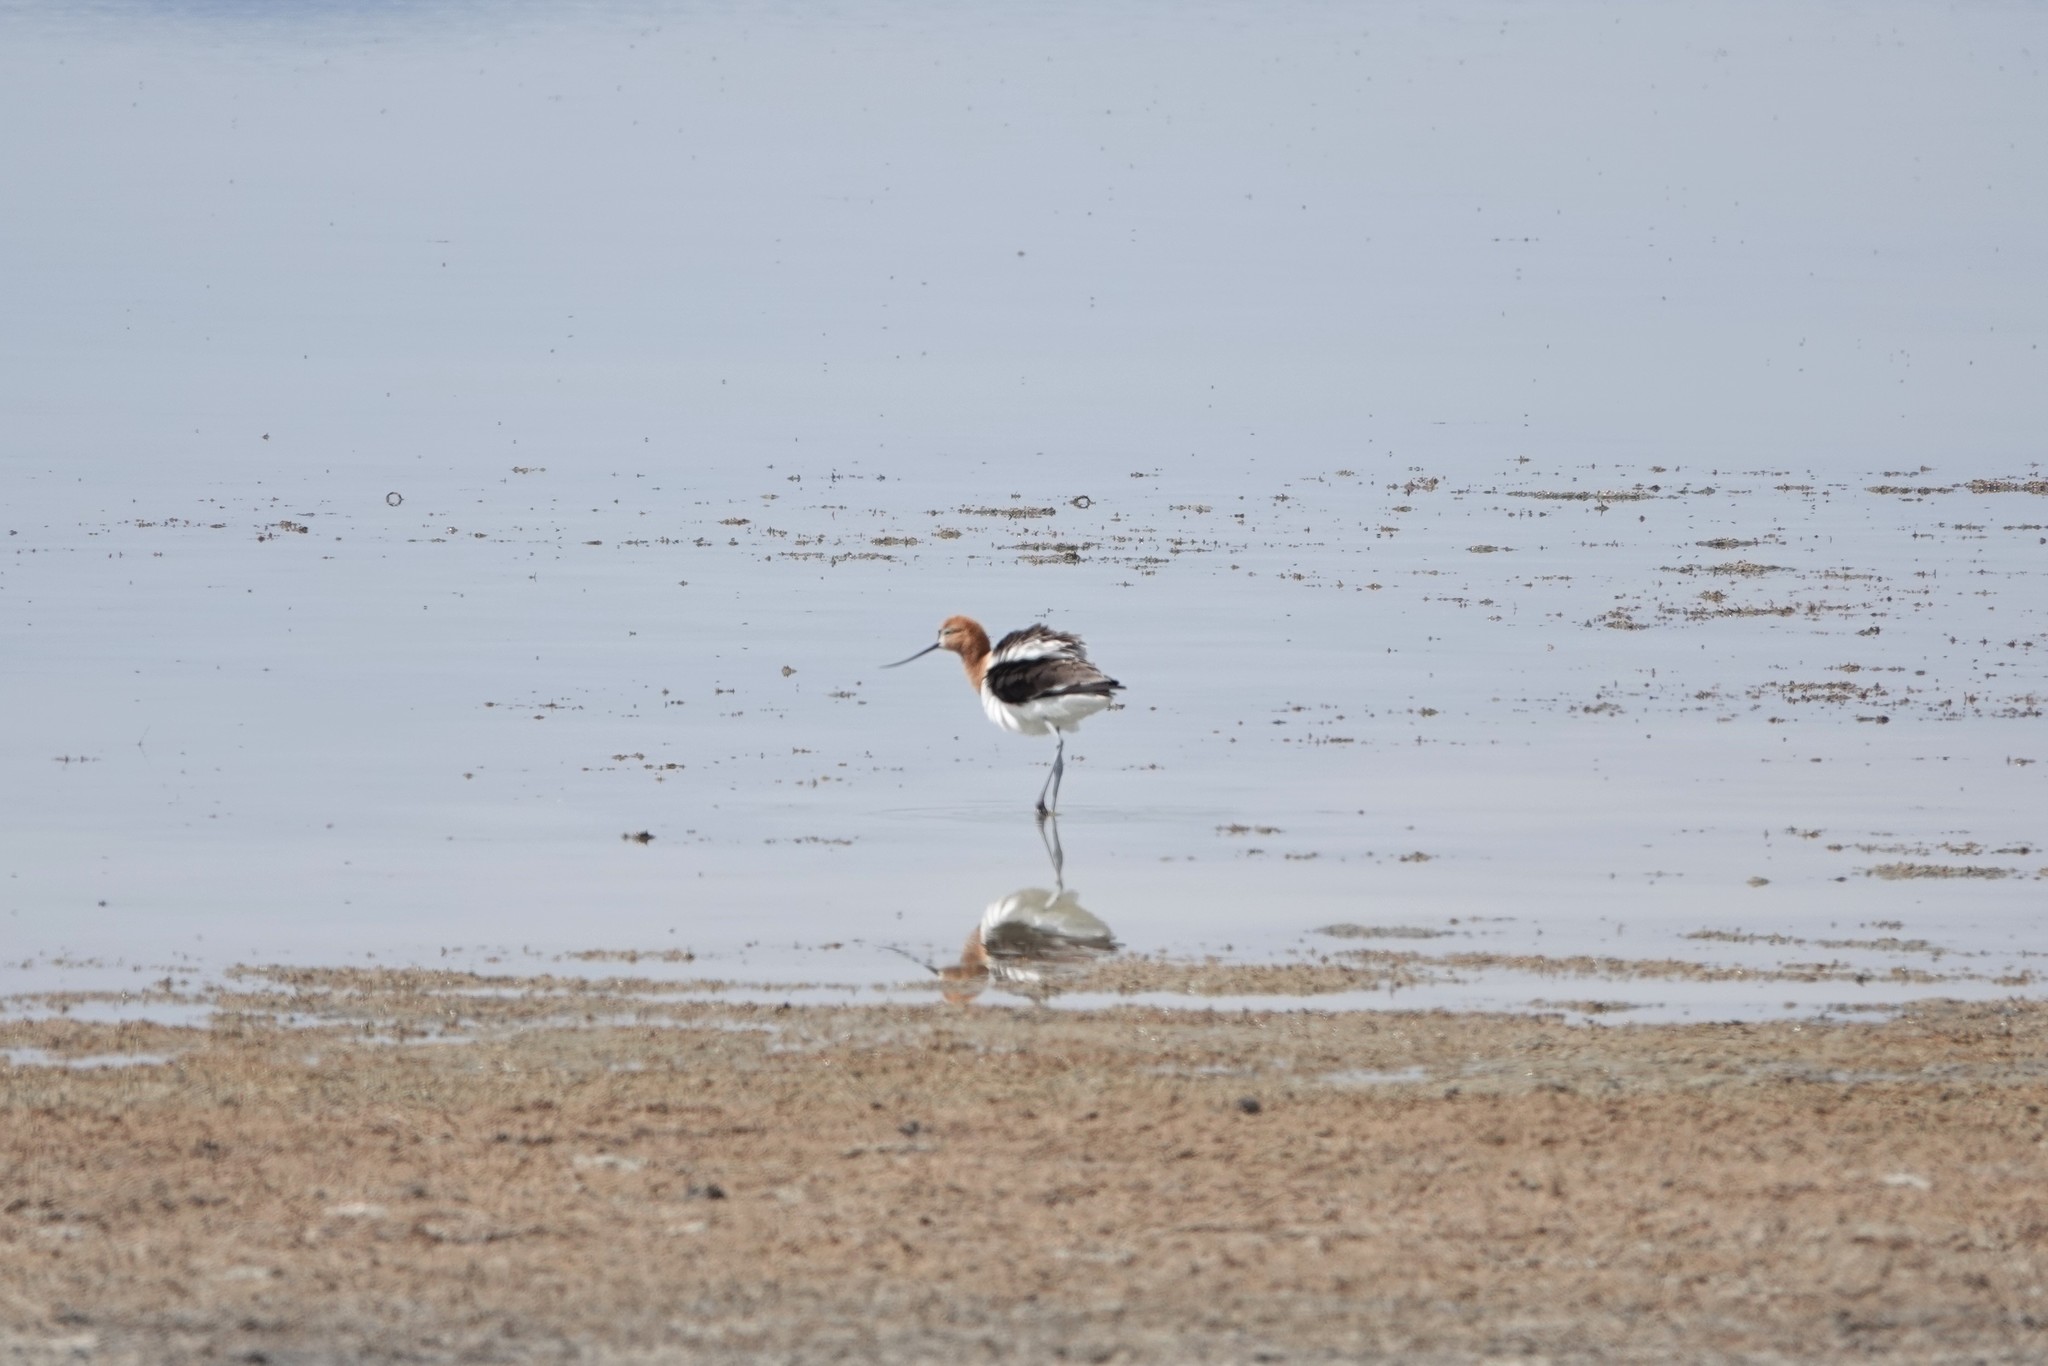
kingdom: Animalia
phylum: Chordata
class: Aves
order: Charadriiformes
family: Recurvirostridae
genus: Recurvirostra
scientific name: Recurvirostra americana
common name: American avocet
